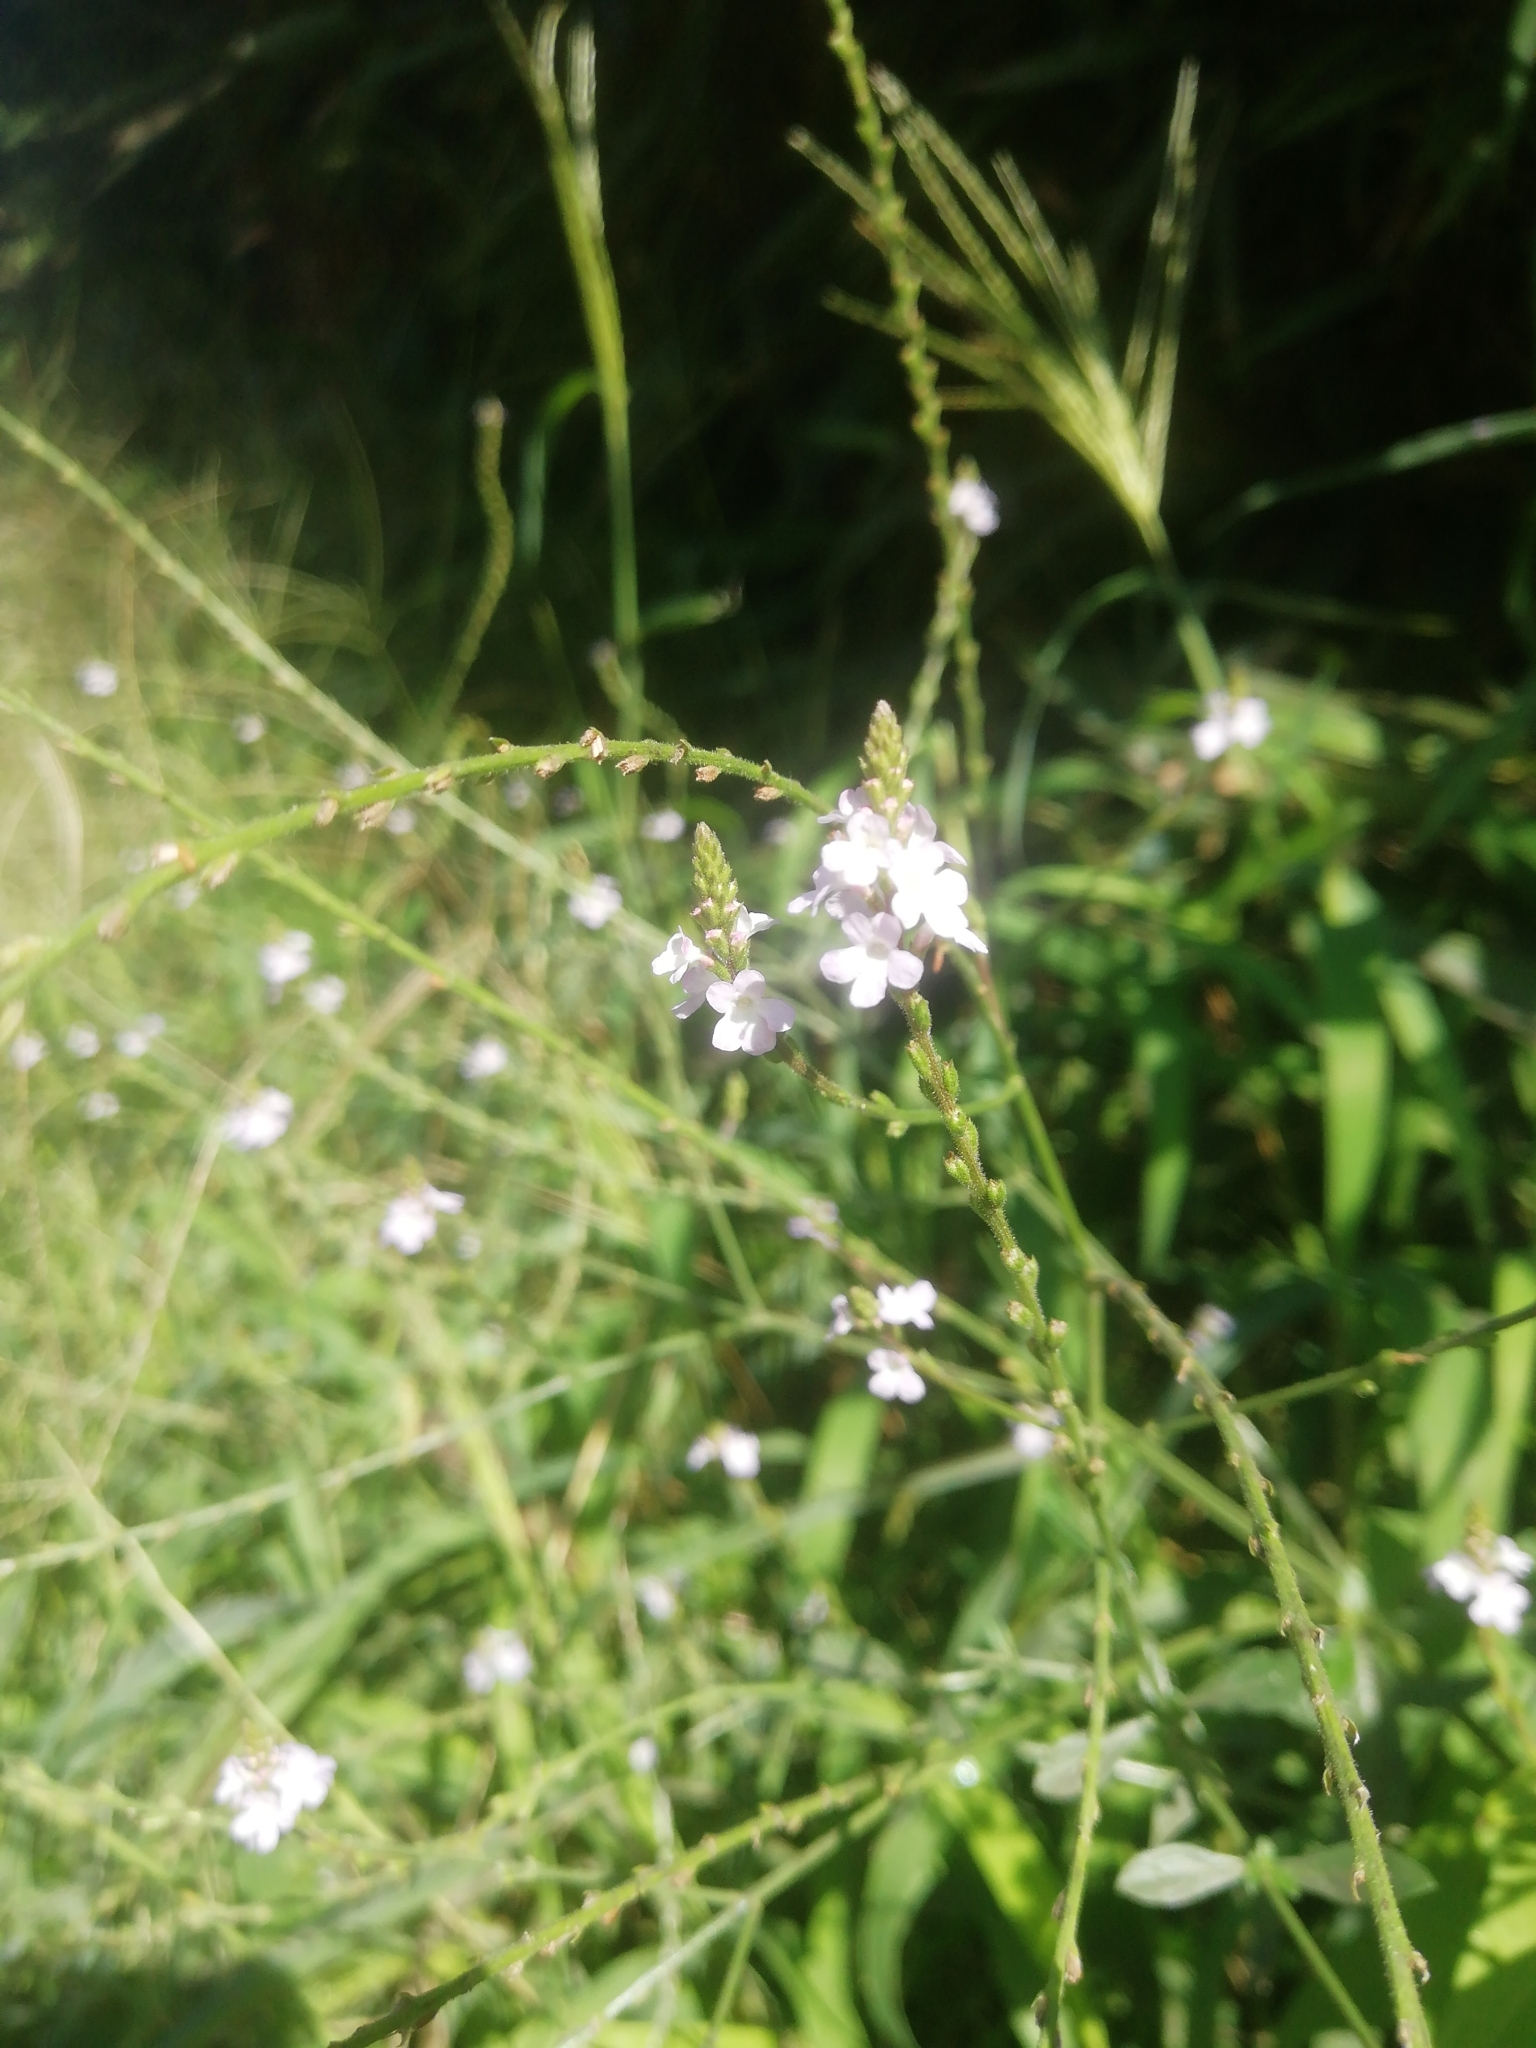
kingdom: Plantae
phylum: Tracheophyta
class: Magnoliopsida
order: Lamiales
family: Verbenaceae
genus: Verbena
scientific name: Verbena officinalis
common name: Vervain
